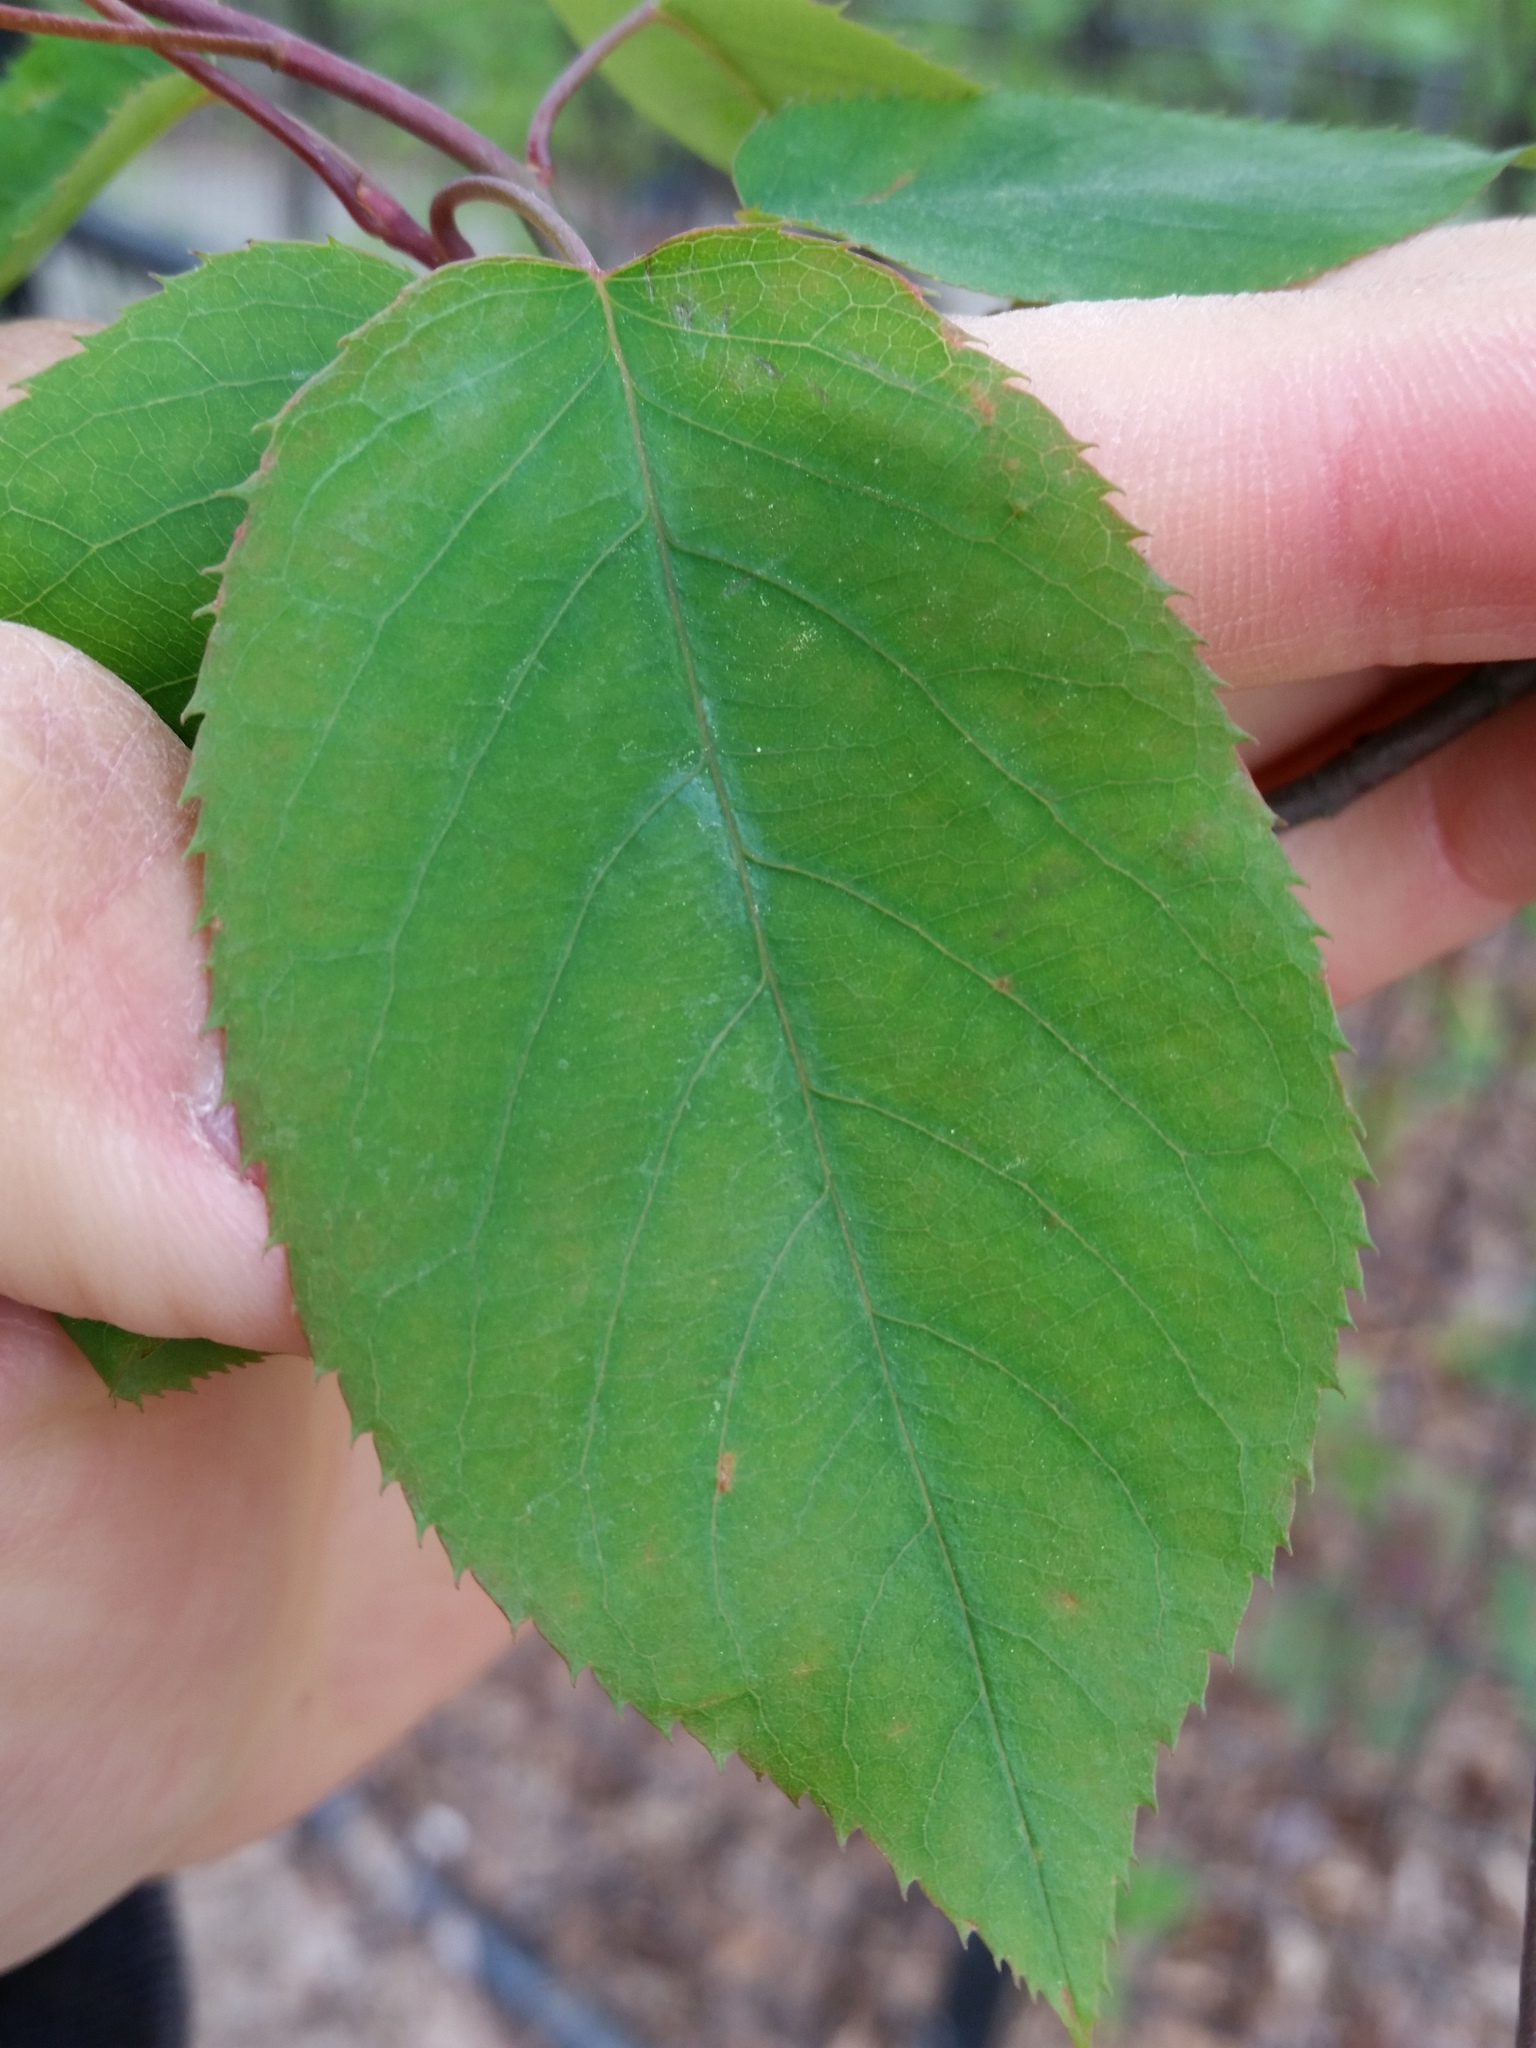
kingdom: Plantae
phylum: Tracheophyta
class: Magnoliopsida
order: Rosales
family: Rosaceae
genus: Amelanchier
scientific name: Amelanchier laevis
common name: Allegheny serviceberry
